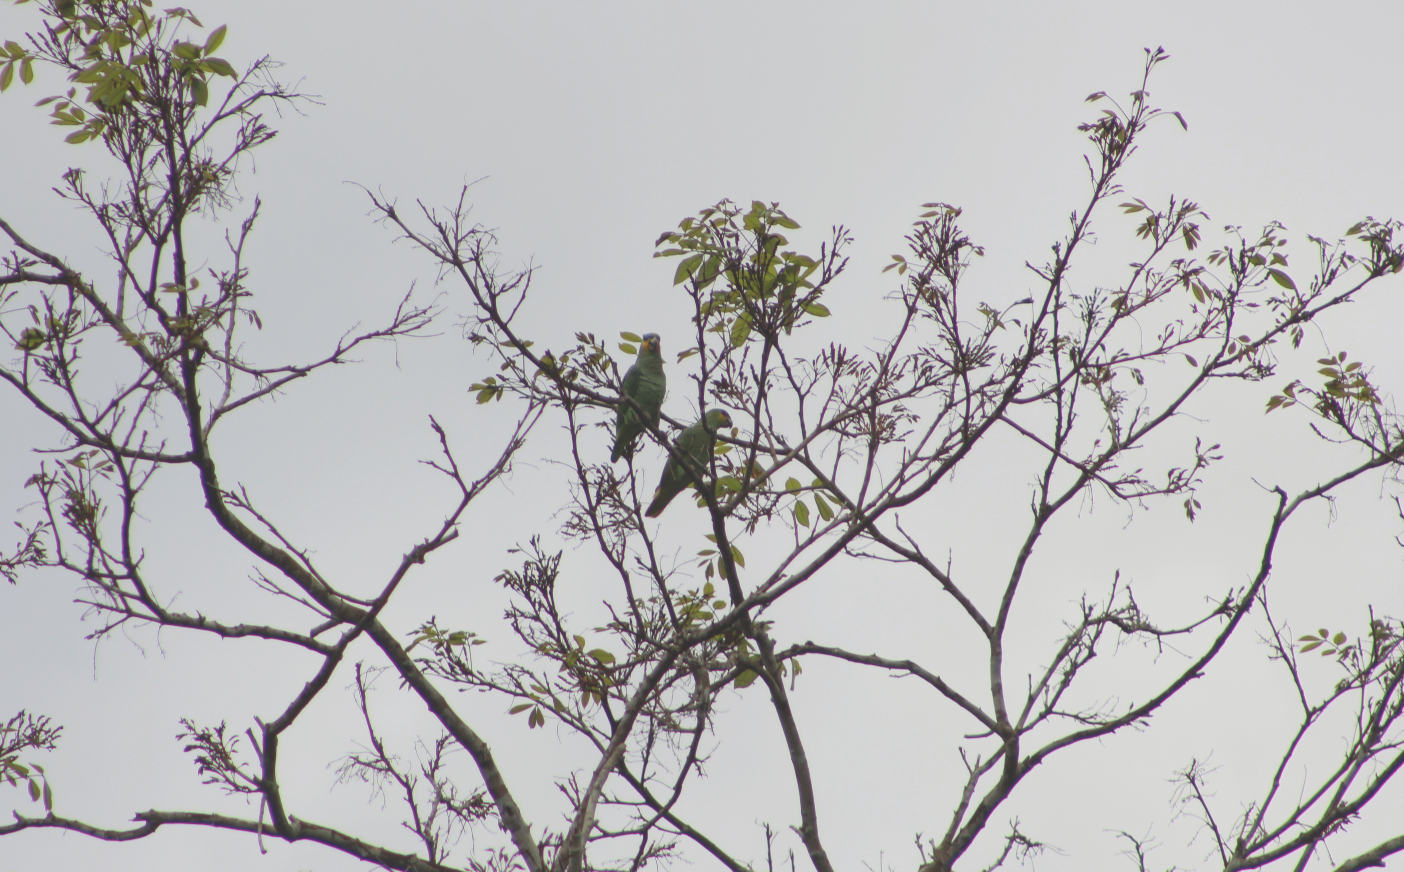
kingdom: Animalia
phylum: Chordata
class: Aves
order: Psittaciformes
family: Psittacidae
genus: Amazona
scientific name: Amazona amazonica
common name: Orange-winged amazon
